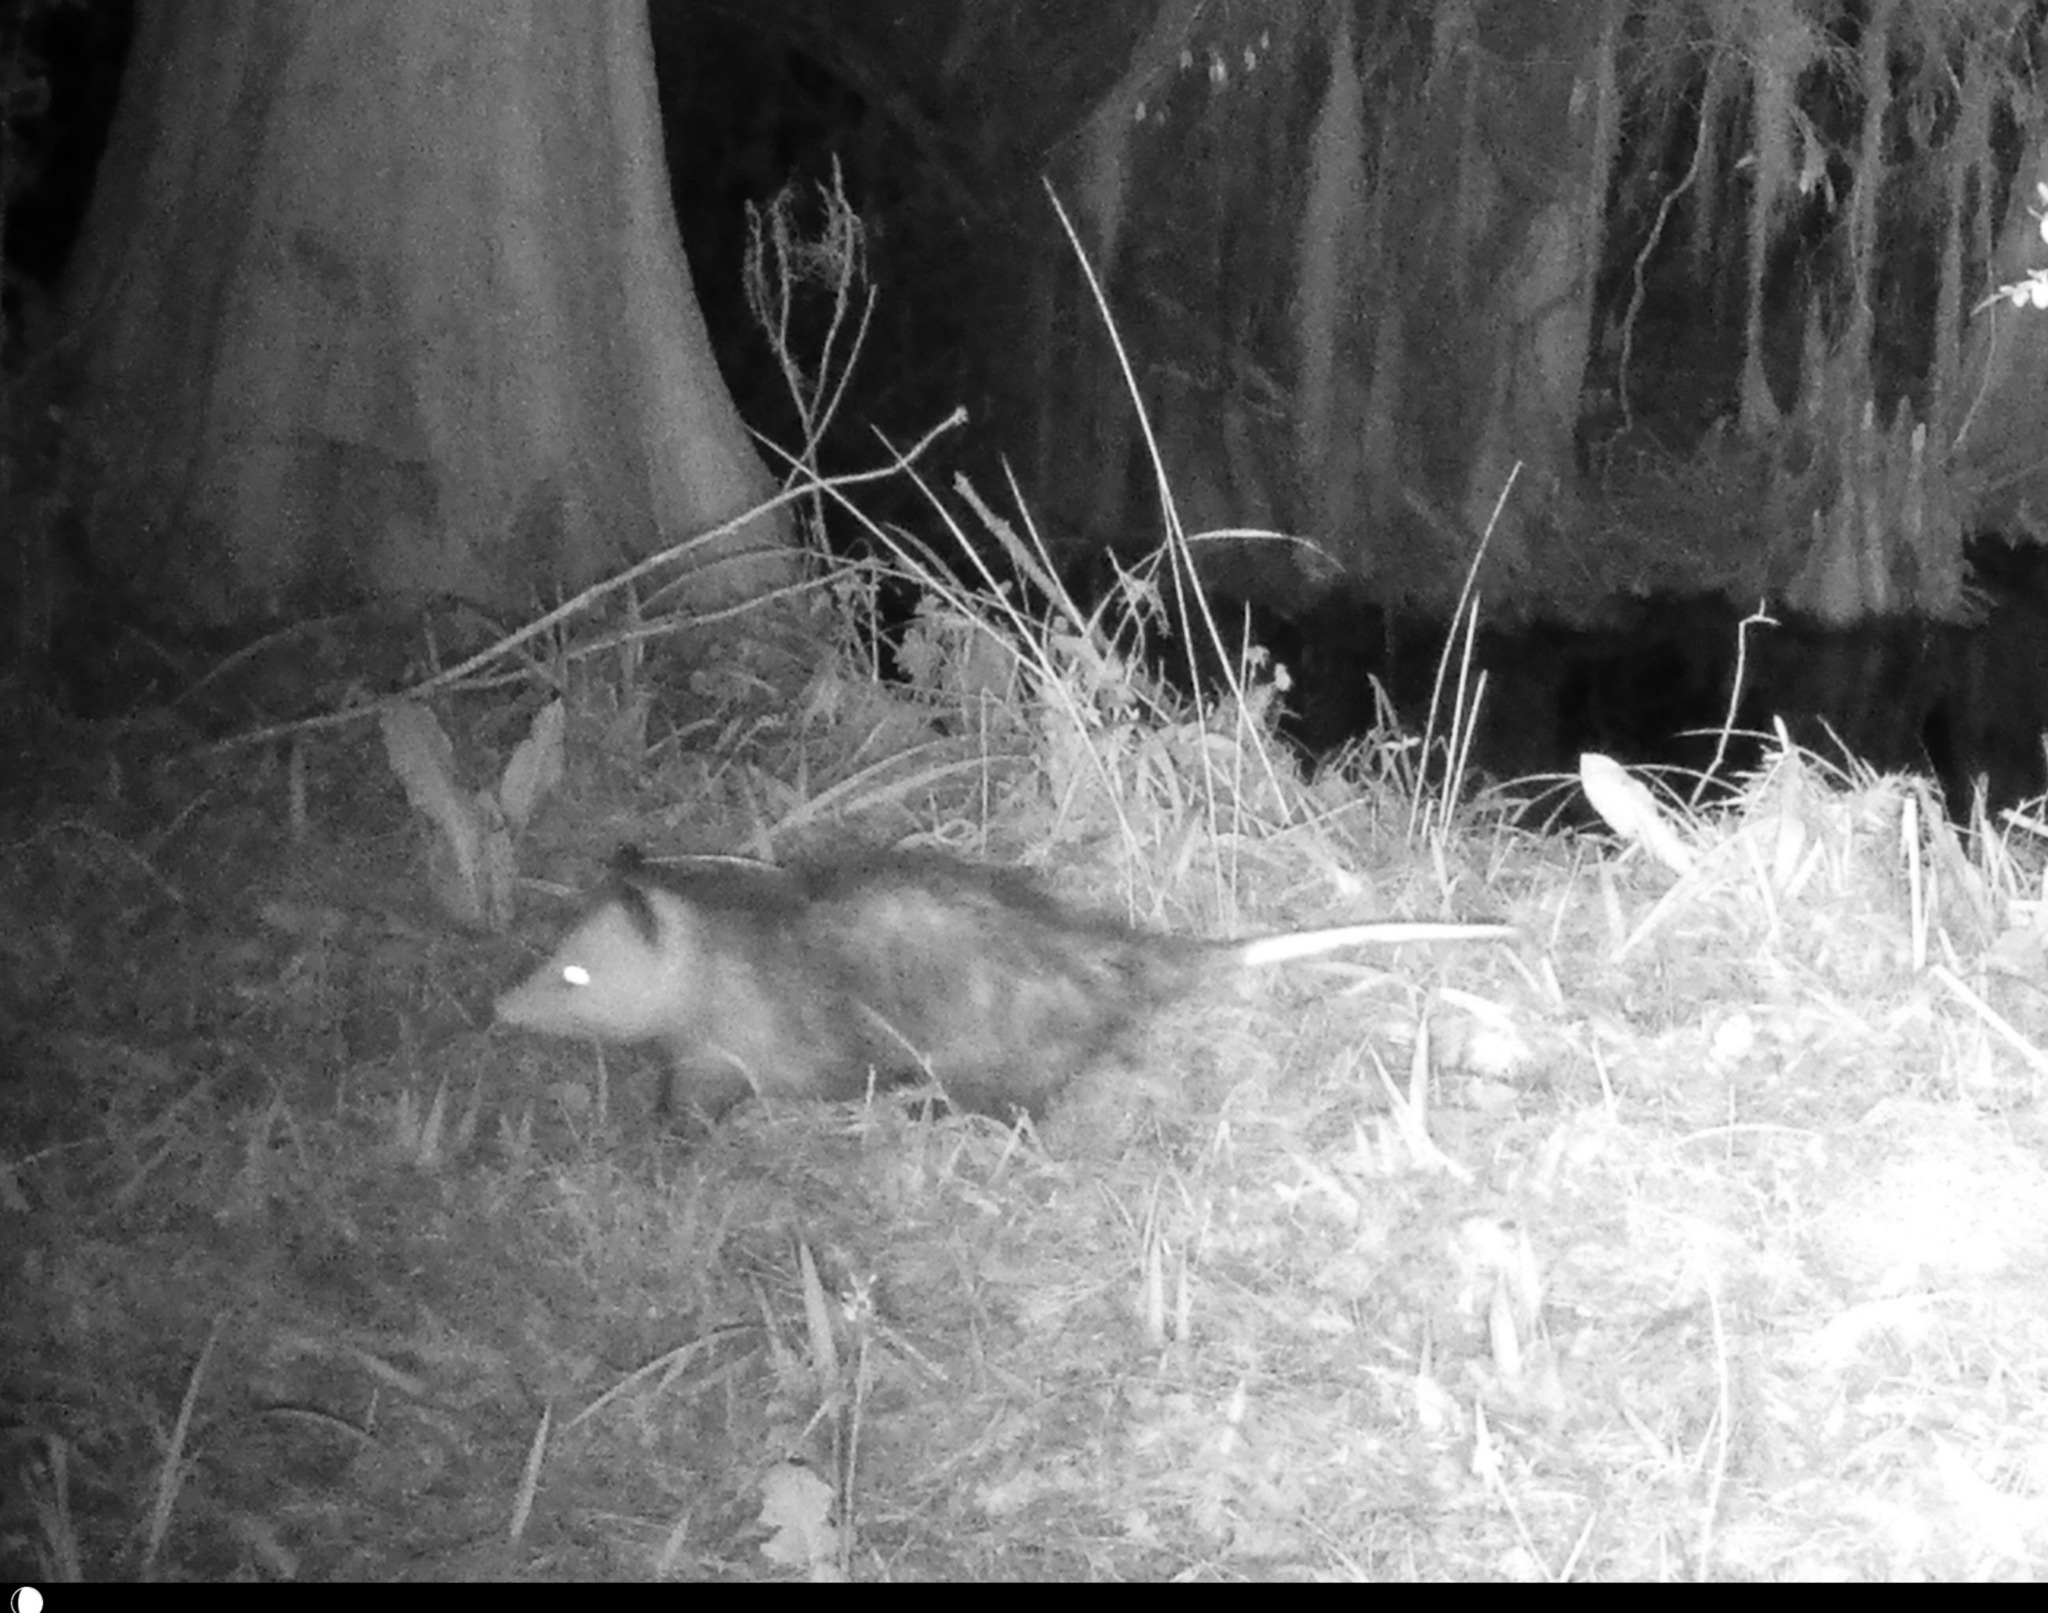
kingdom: Animalia
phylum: Chordata
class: Mammalia
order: Didelphimorphia
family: Didelphidae
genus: Didelphis
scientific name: Didelphis virginiana
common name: Virginia opossum
